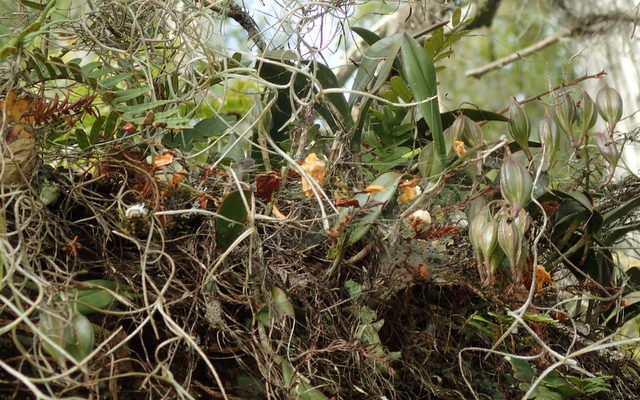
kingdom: Plantae
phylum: Tracheophyta
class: Liliopsida
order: Asparagales
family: Orchidaceae
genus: Epidendrum
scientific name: Epidendrum conopseum
